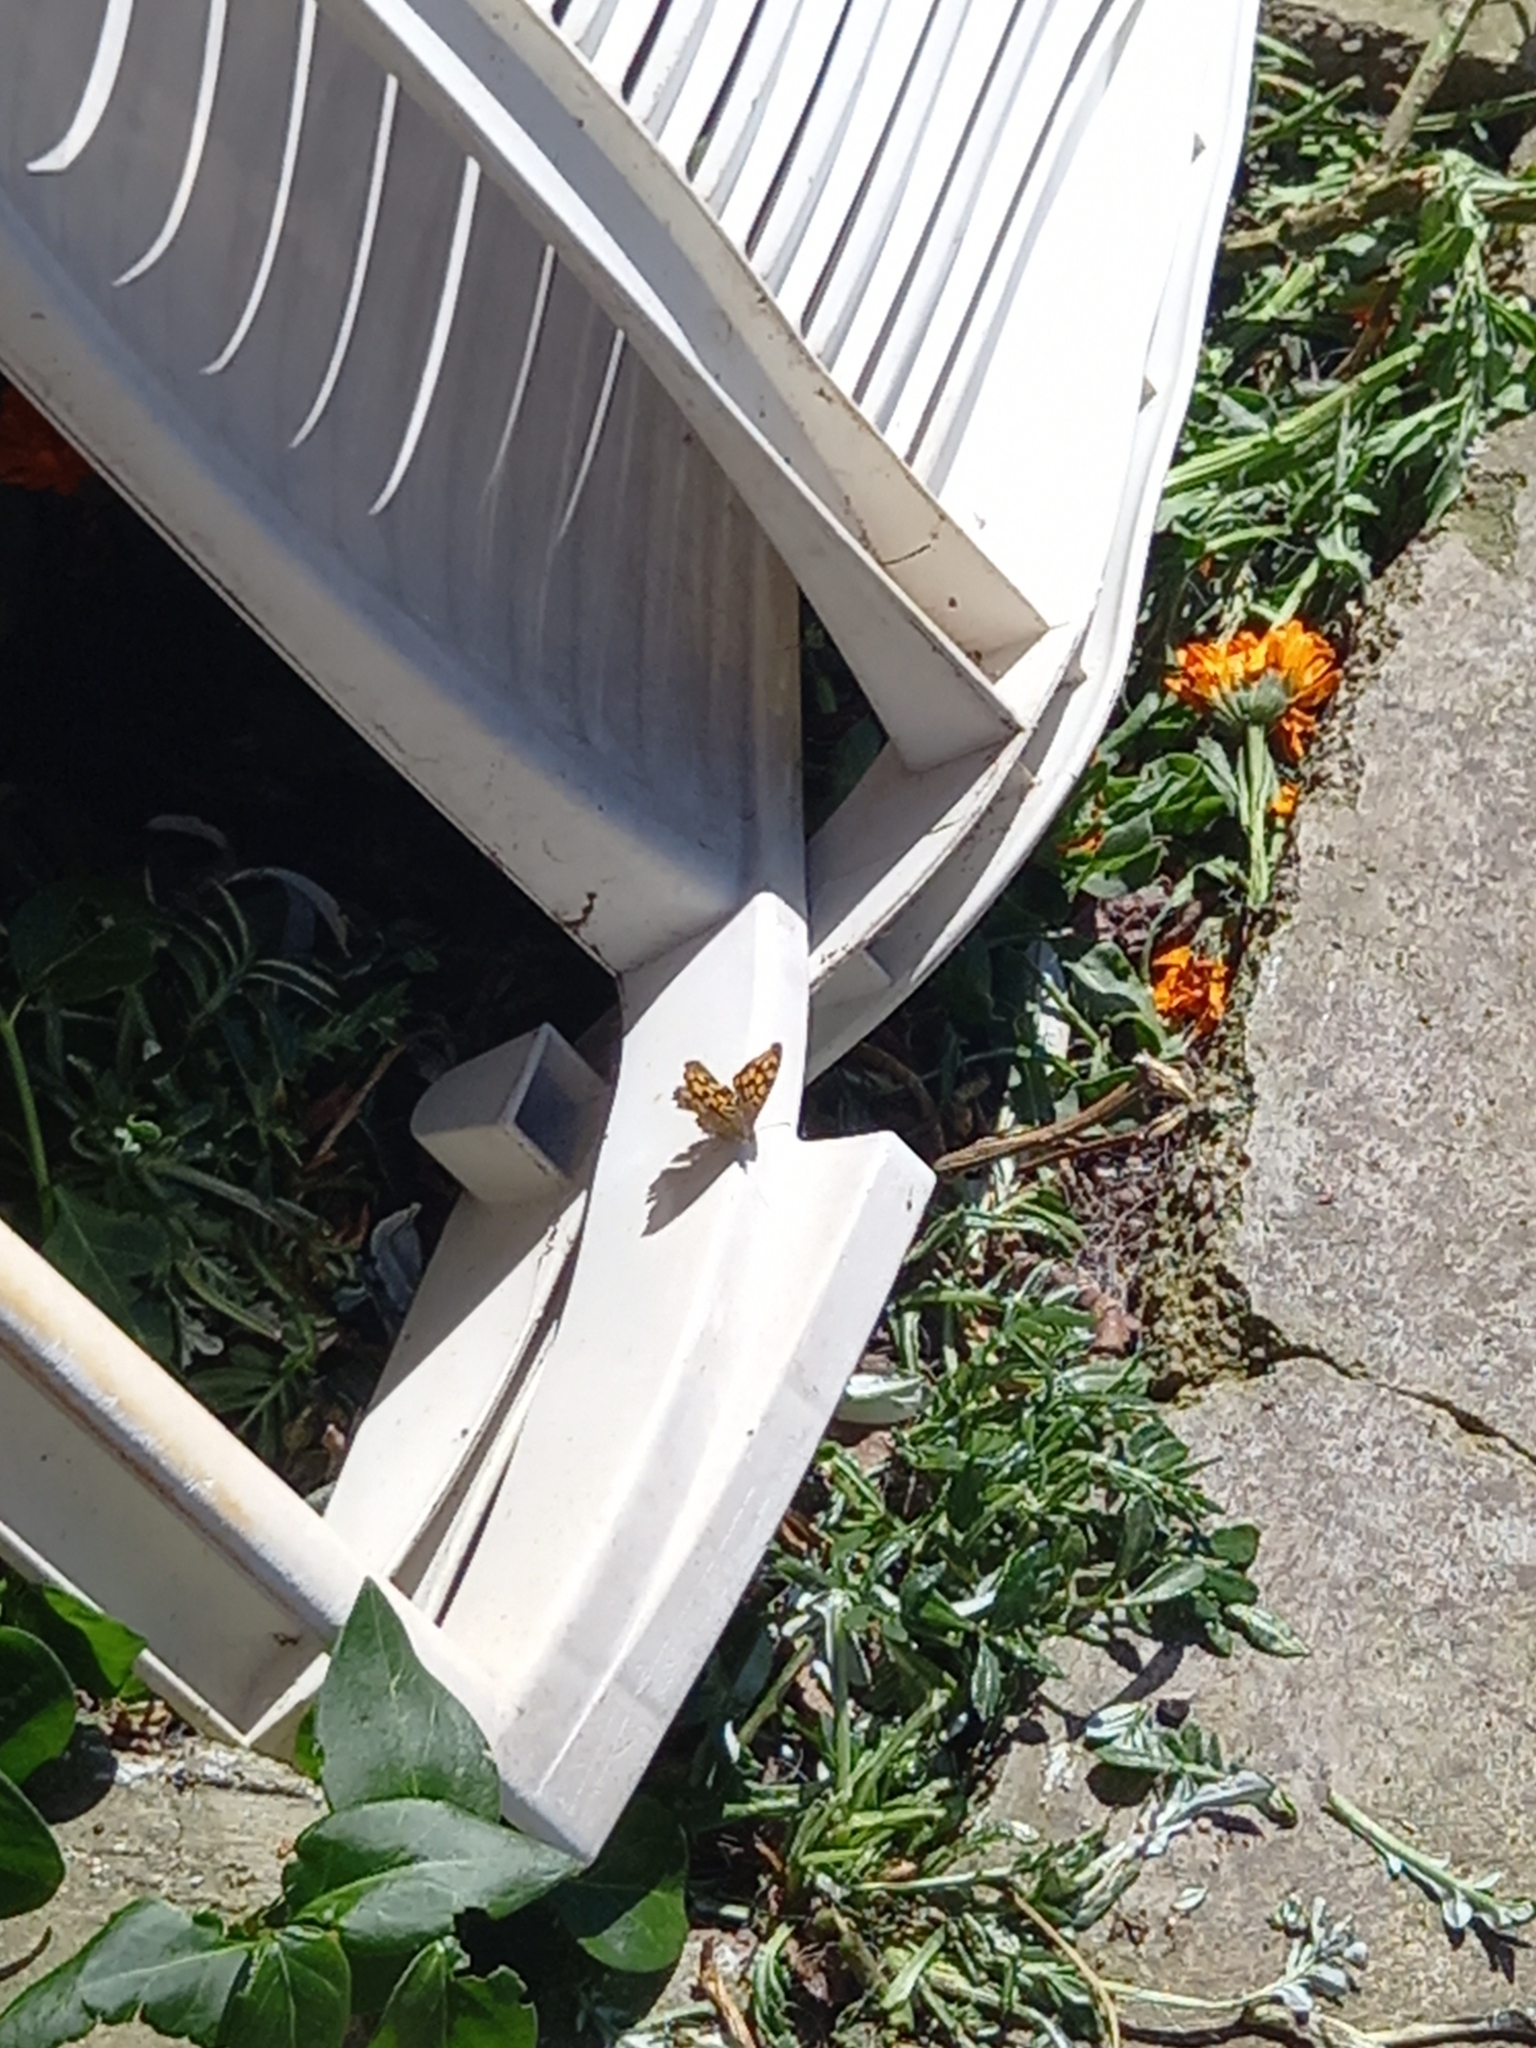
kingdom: Animalia
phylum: Arthropoda
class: Insecta
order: Lepidoptera
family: Nymphalidae
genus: Pararge
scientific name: Pararge aegeria
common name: Speckled wood
